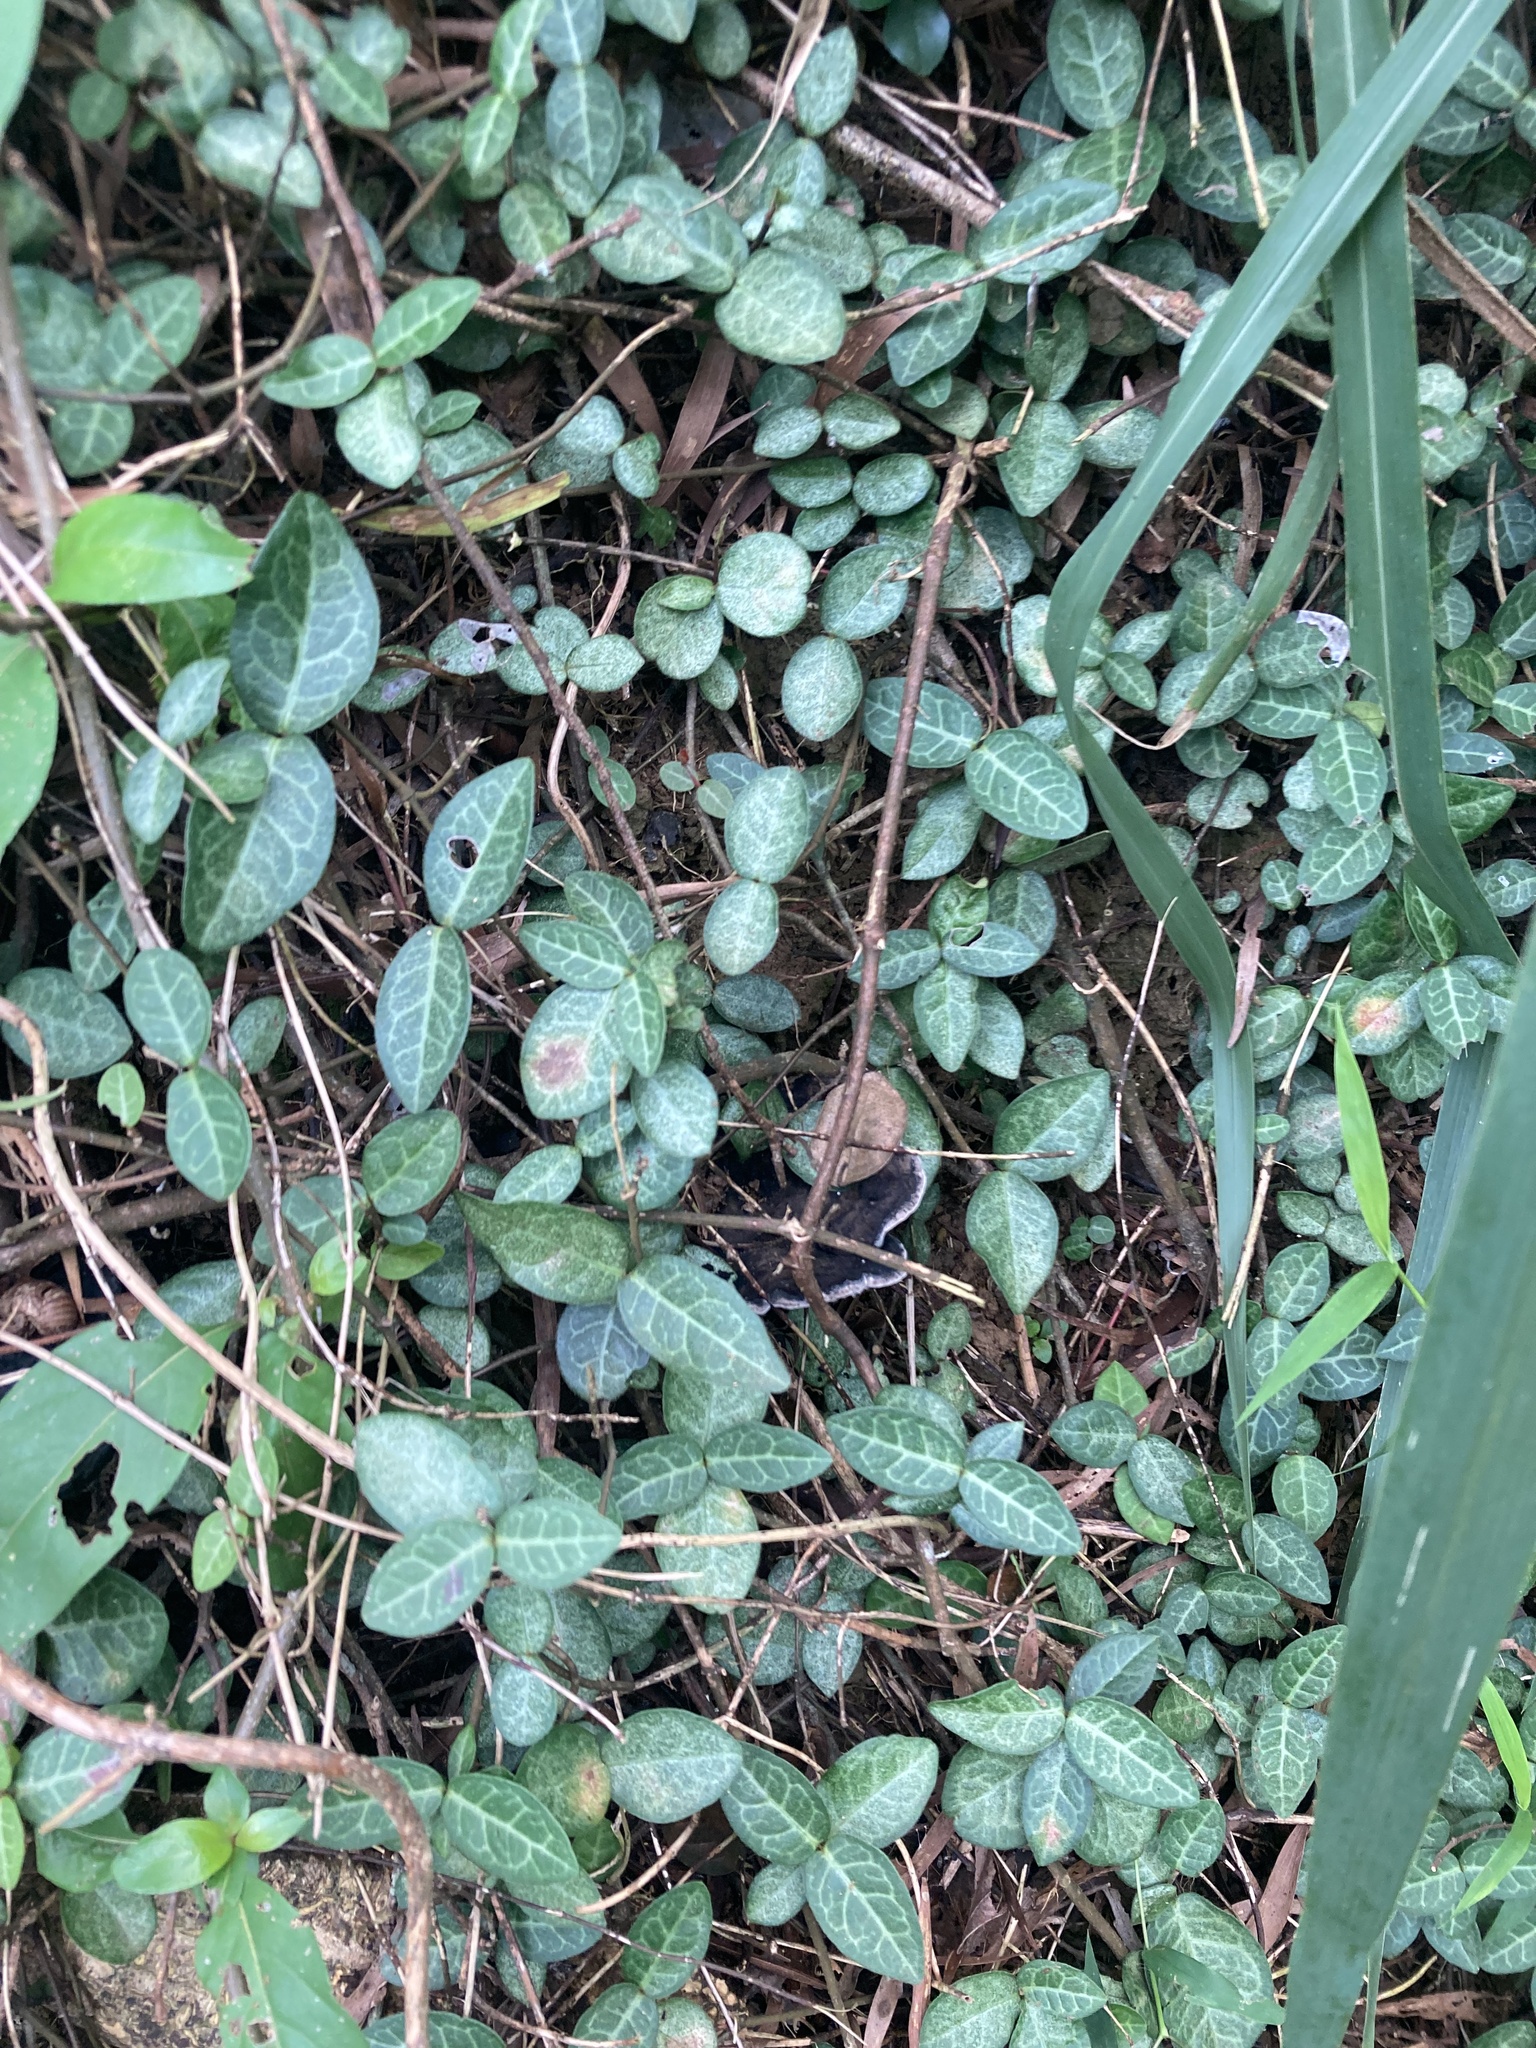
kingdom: Plantae
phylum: Tracheophyta
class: Magnoliopsida
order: Gentianales
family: Apocynaceae
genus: Trachelospermum
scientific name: Trachelospermum asiaticum
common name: Asiatic jasmine
